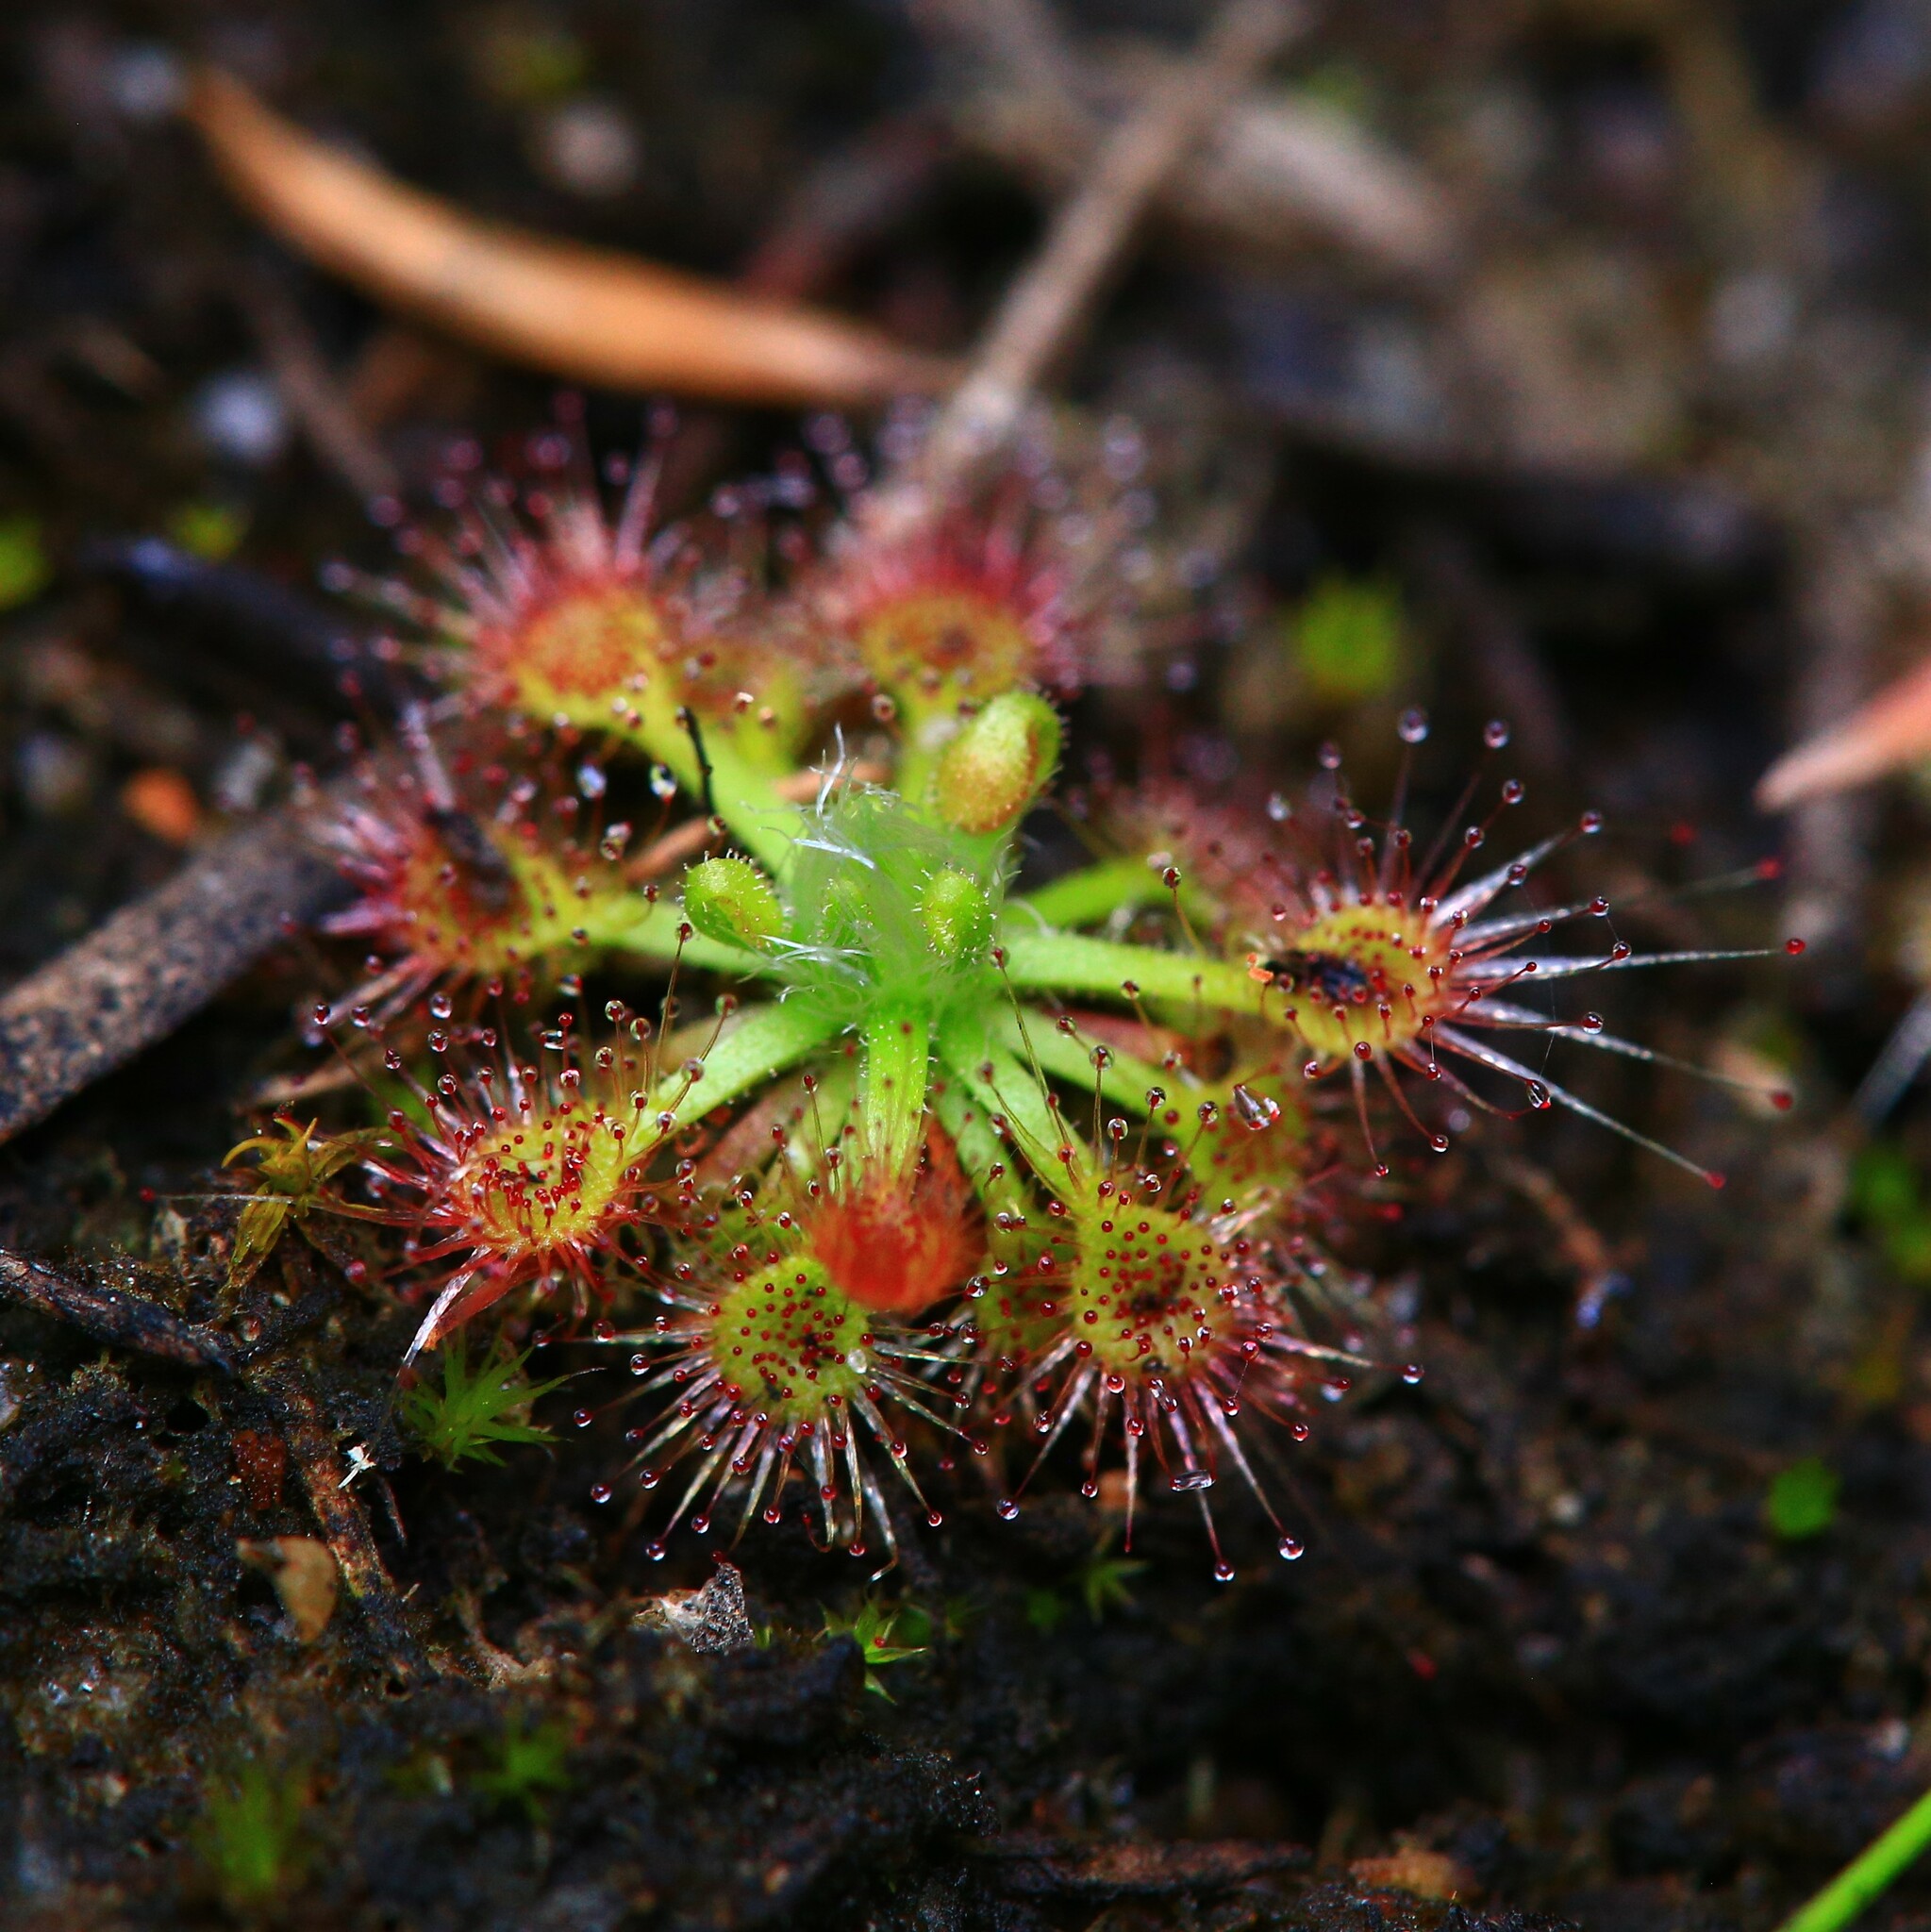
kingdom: Plantae
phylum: Tracheophyta
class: Magnoliopsida
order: Caryophyllales
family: Droseraceae
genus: Drosera
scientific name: Drosera nitidula
